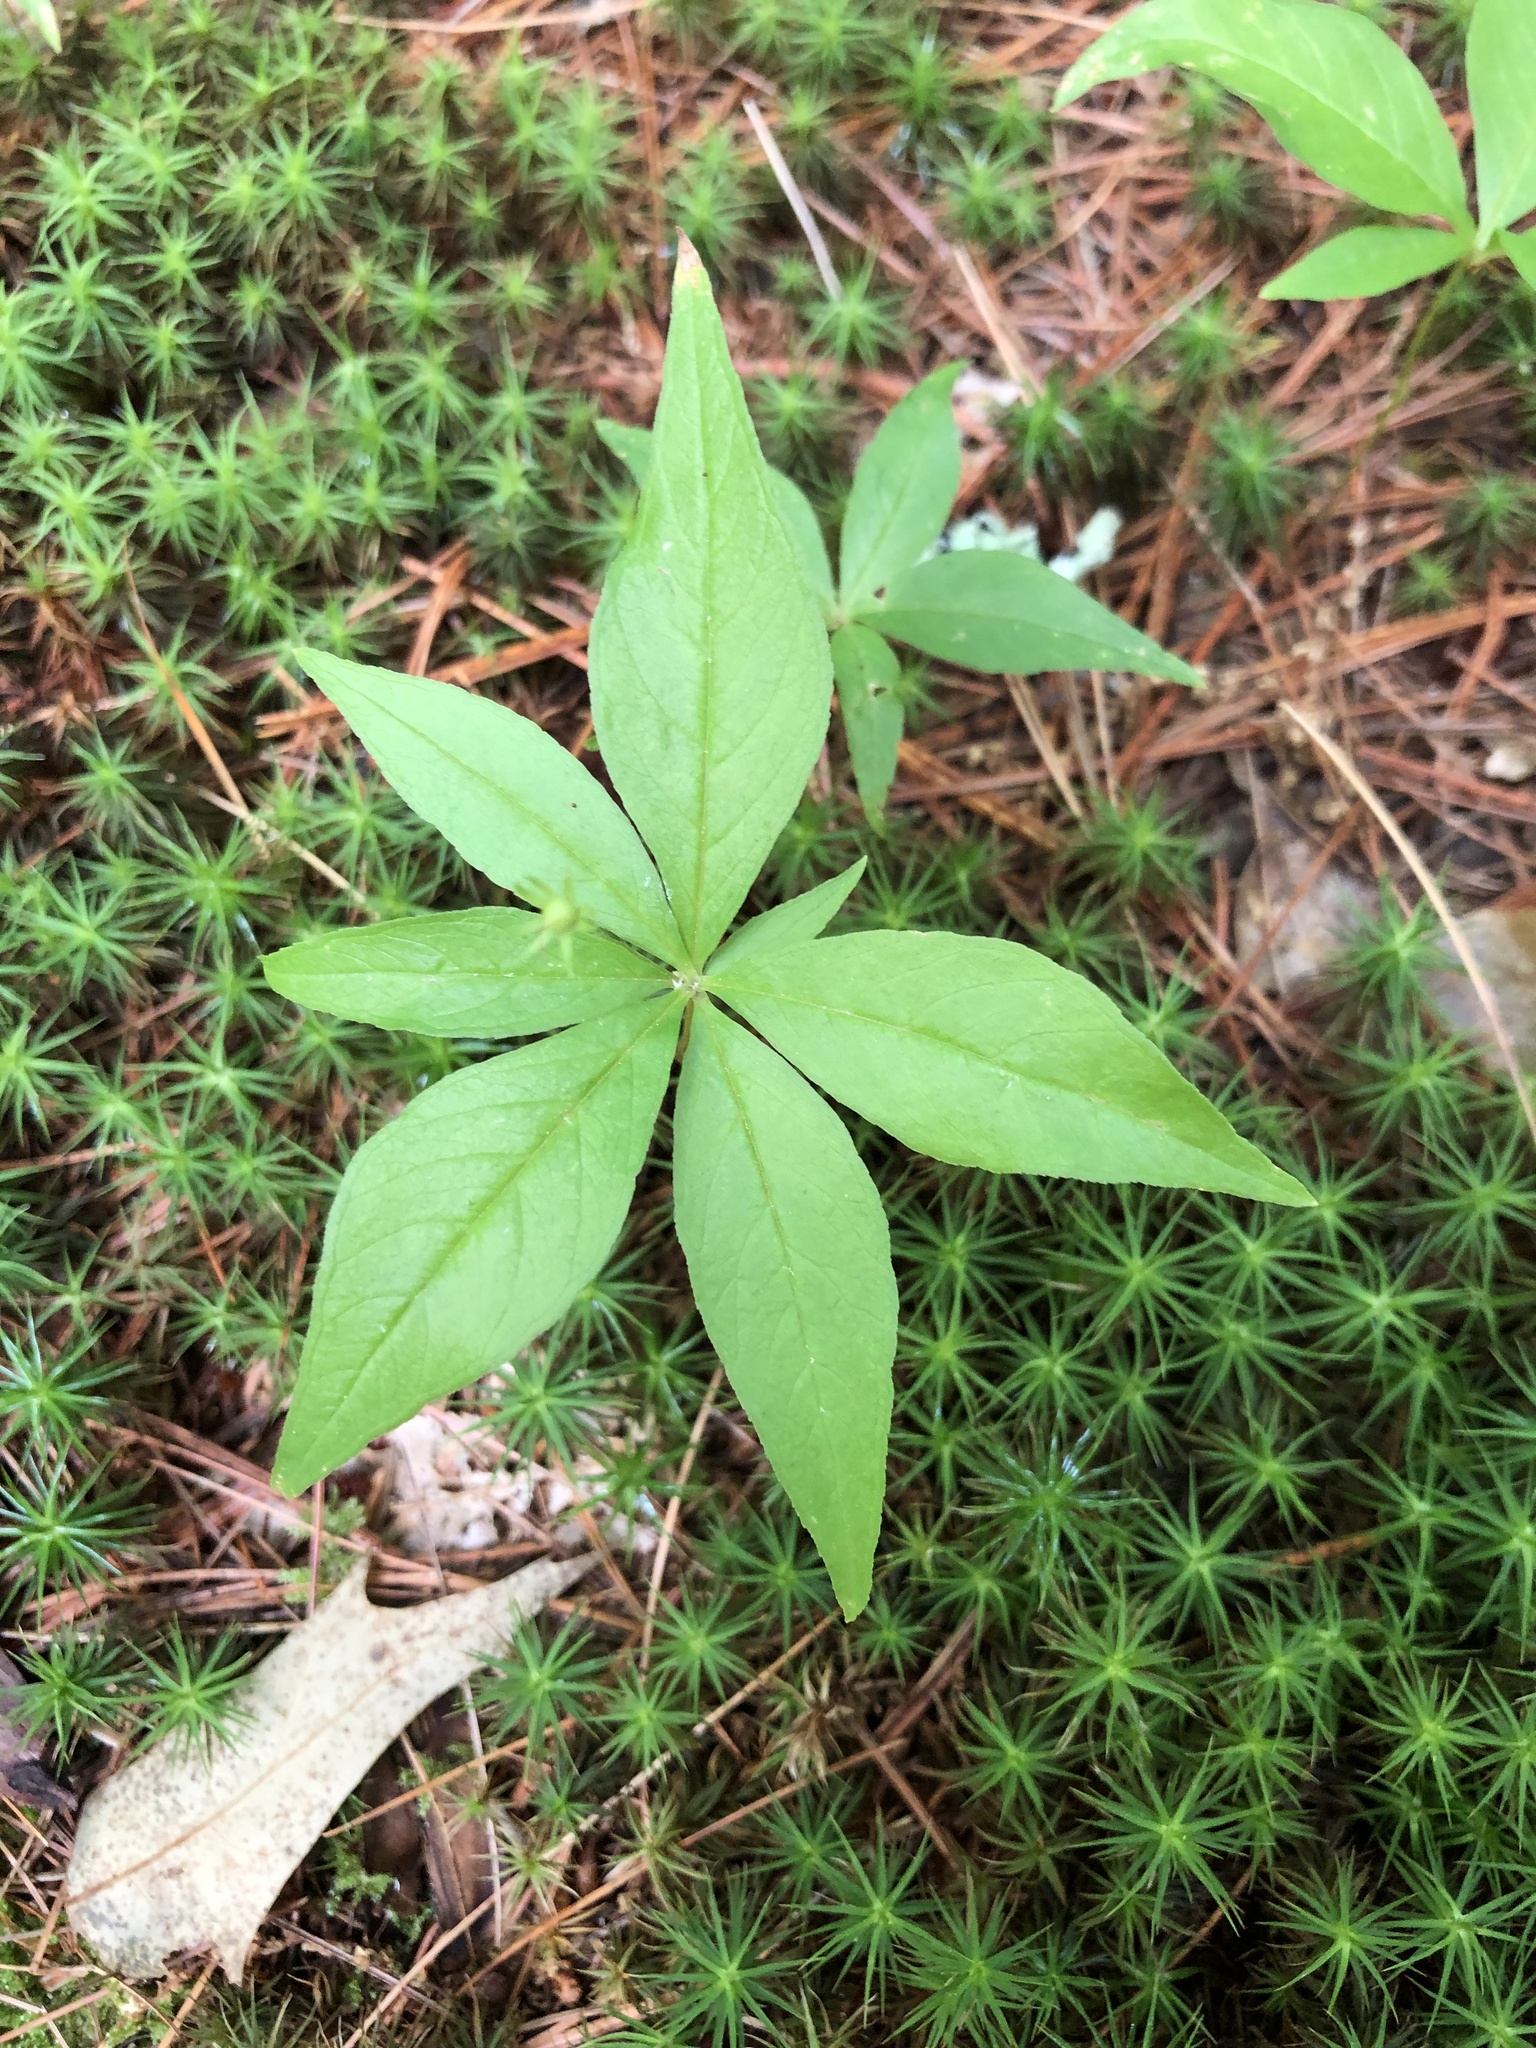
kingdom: Plantae
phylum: Tracheophyta
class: Magnoliopsida
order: Ericales
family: Primulaceae
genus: Lysimachia
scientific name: Lysimachia borealis
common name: American starflower
